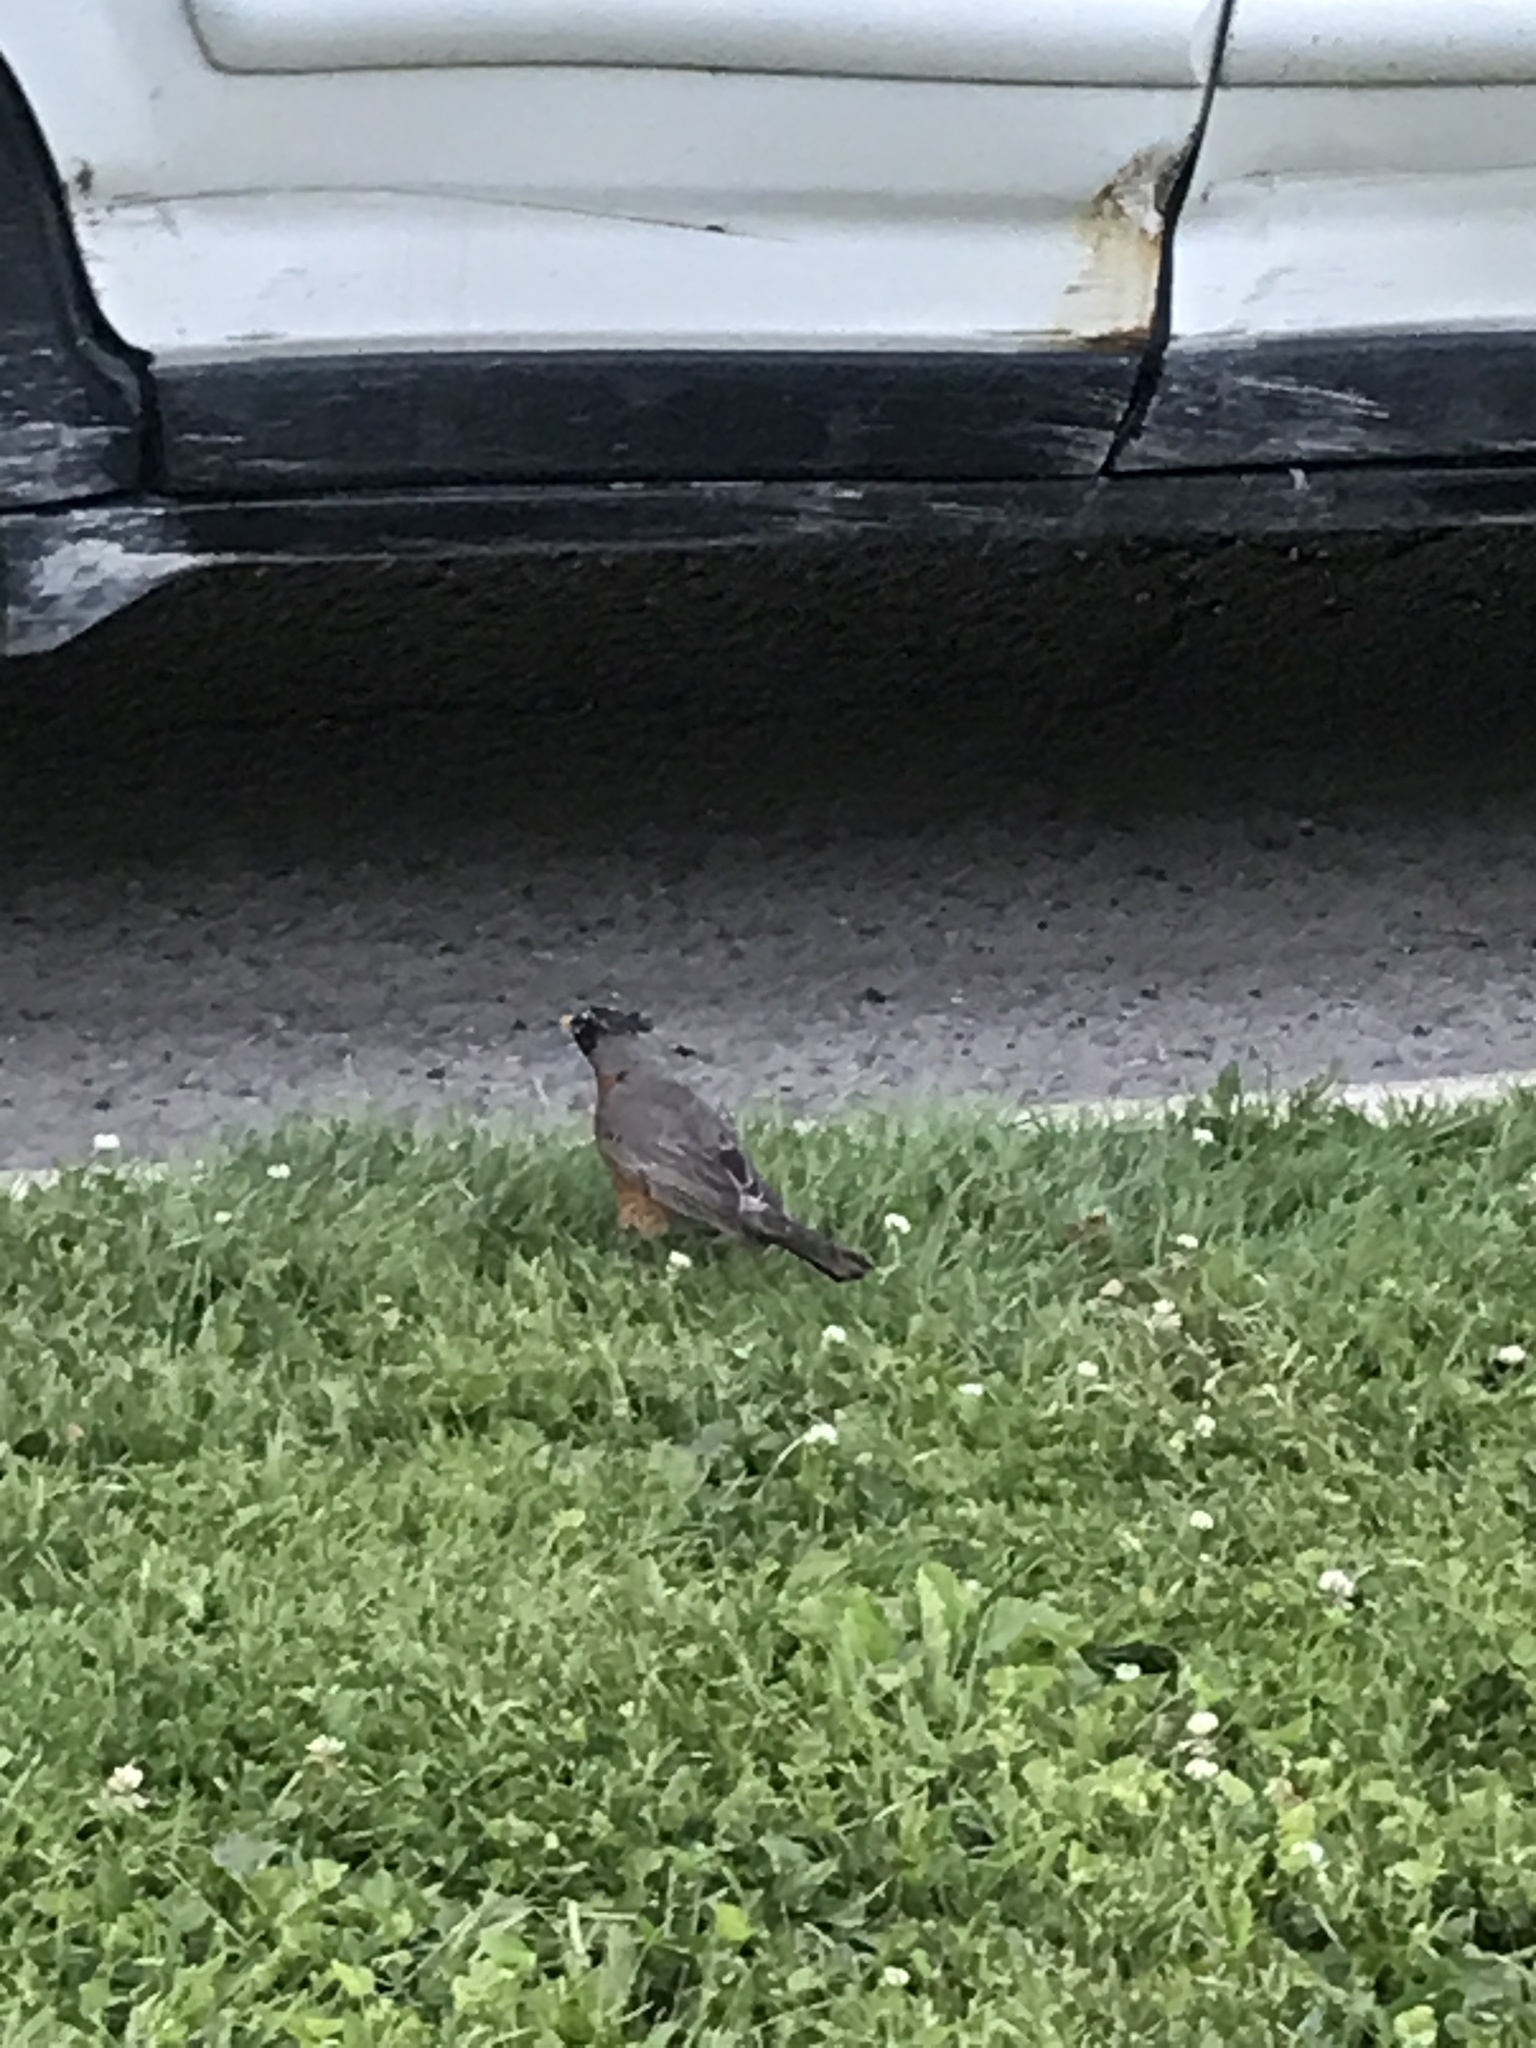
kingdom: Animalia
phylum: Chordata
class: Aves
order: Passeriformes
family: Turdidae
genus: Turdus
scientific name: Turdus migratorius
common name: American robin
